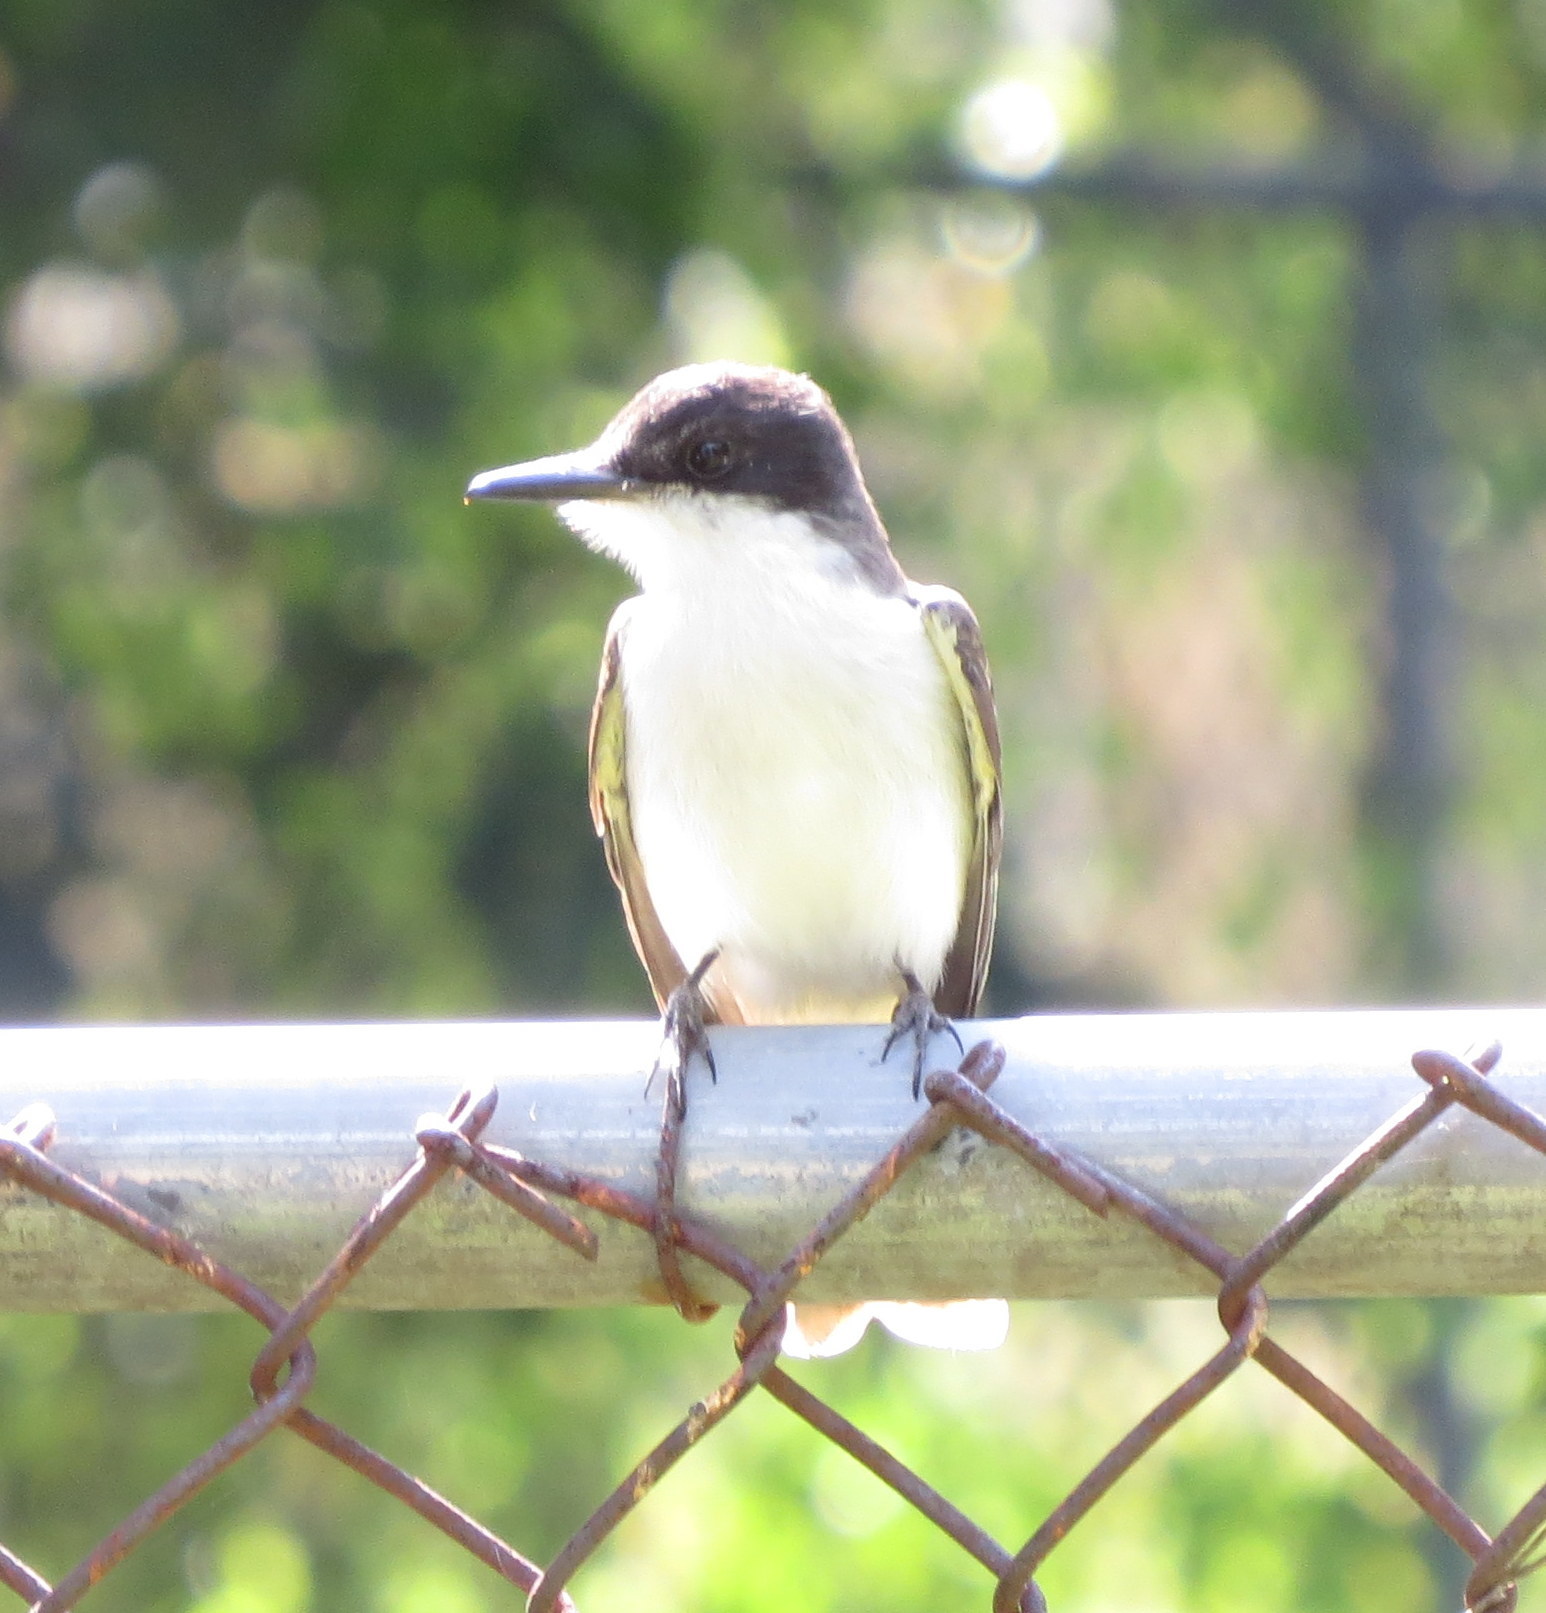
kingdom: Animalia
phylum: Chordata
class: Aves
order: Passeriformes
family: Tyrannidae
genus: Tyrannus
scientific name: Tyrannus caudifasciatus
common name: Loggerhead kingbird
